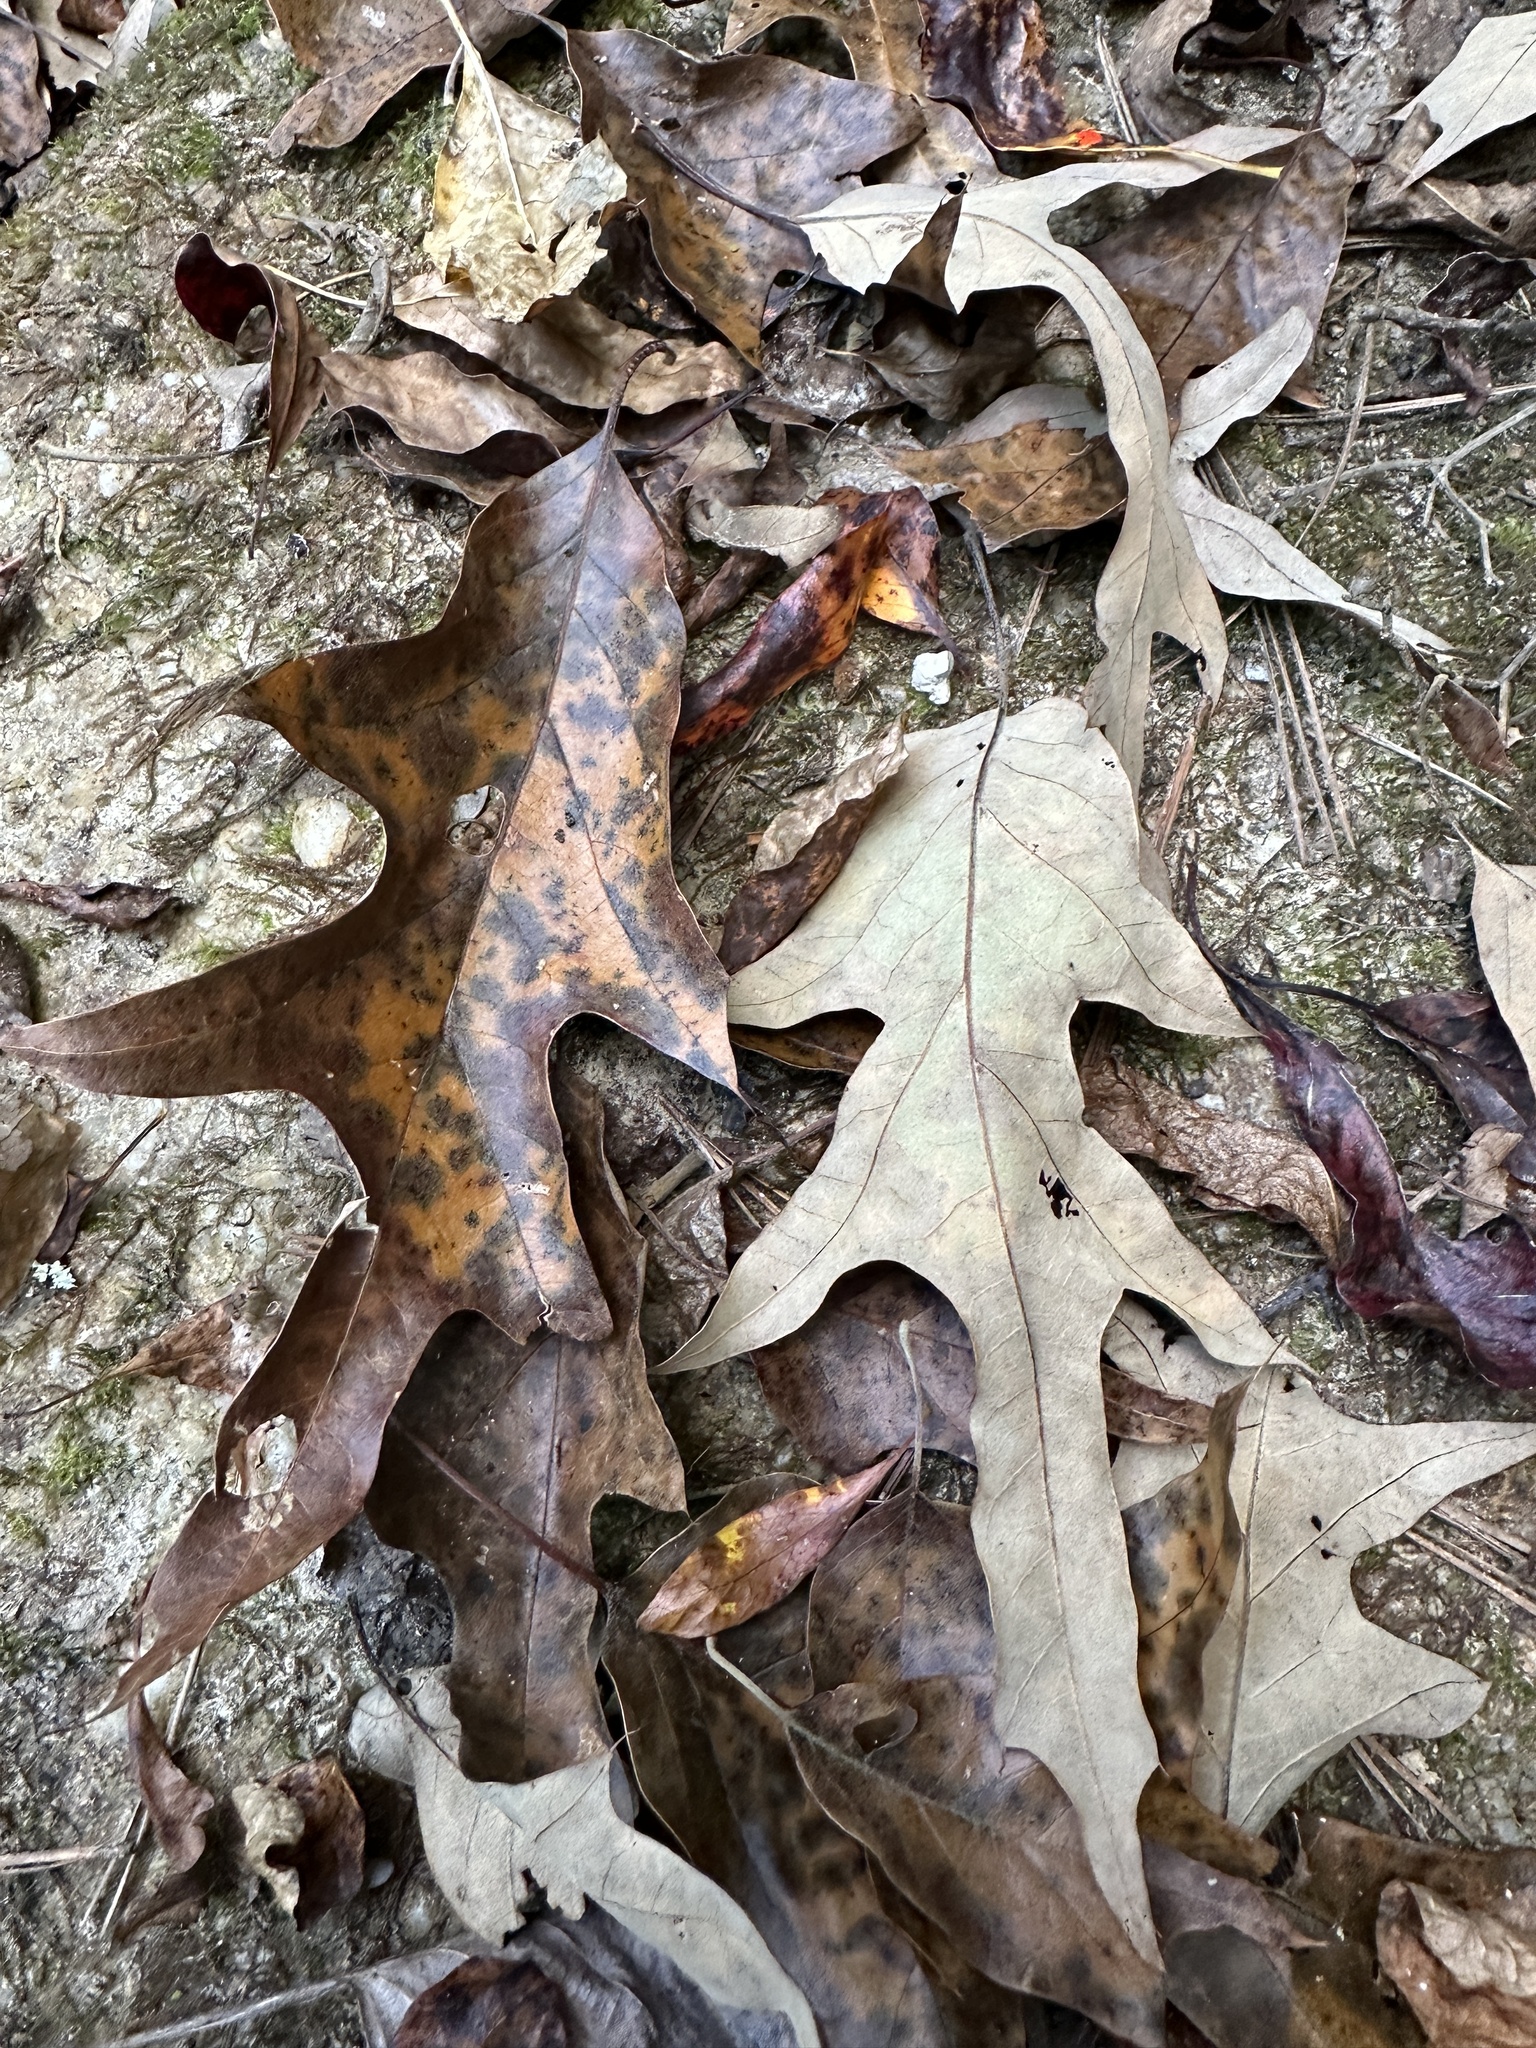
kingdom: Plantae
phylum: Tracheophyta
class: Magnoliopsida
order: Fagales
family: Fagaceae
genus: Quercus
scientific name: Quercus falcata
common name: Southern red oak
